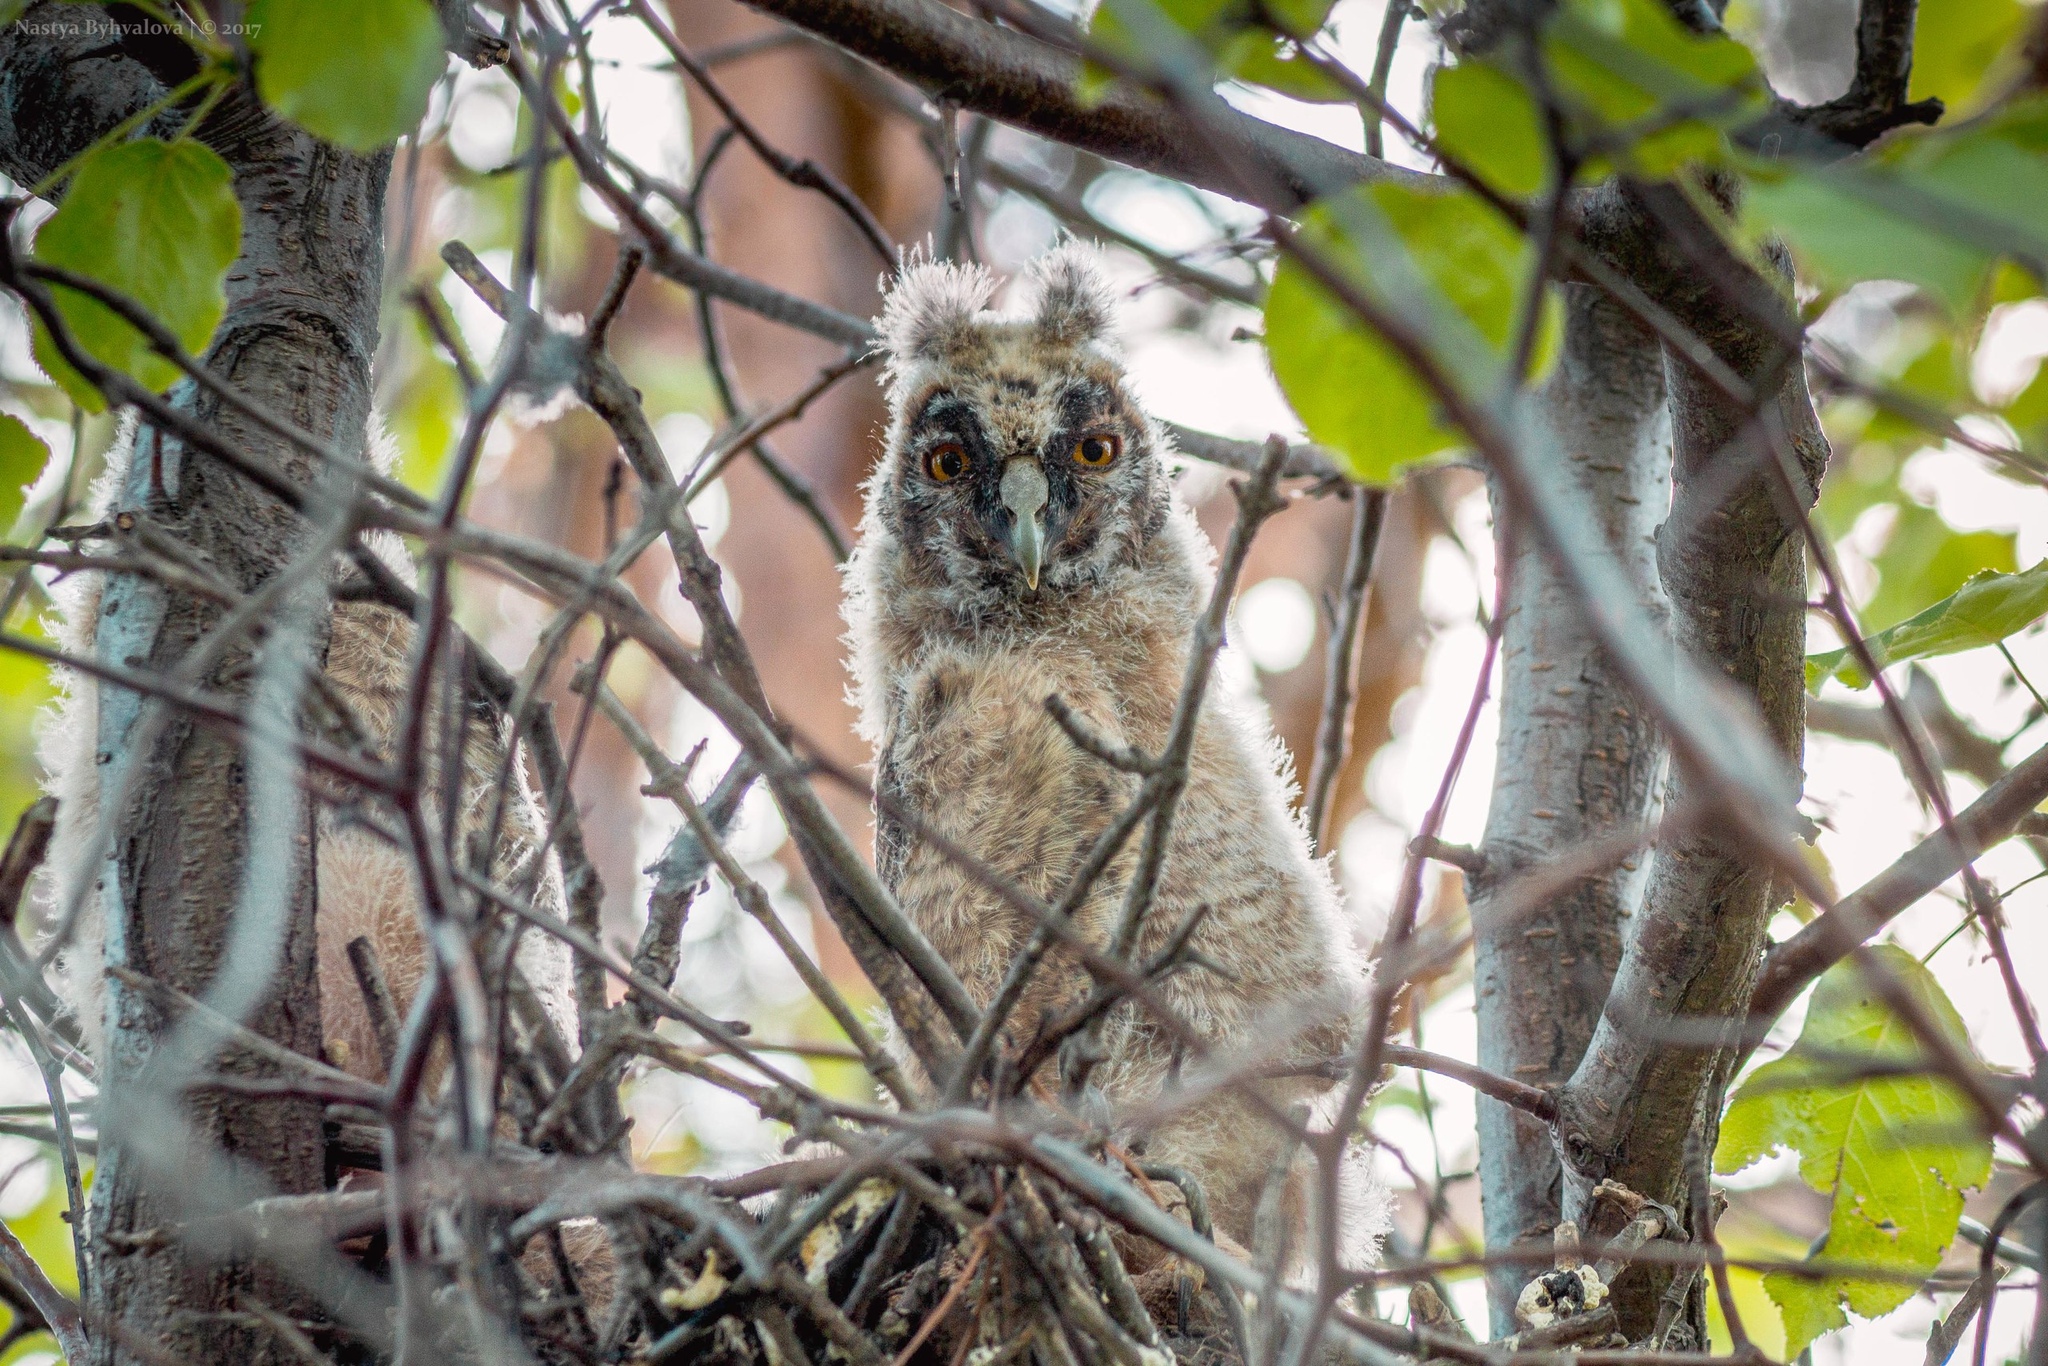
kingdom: Animalia
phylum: Chordata
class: Aves
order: Strigiformes
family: Strigidae
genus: Asio
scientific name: Asio otus
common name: Long-eared owl
